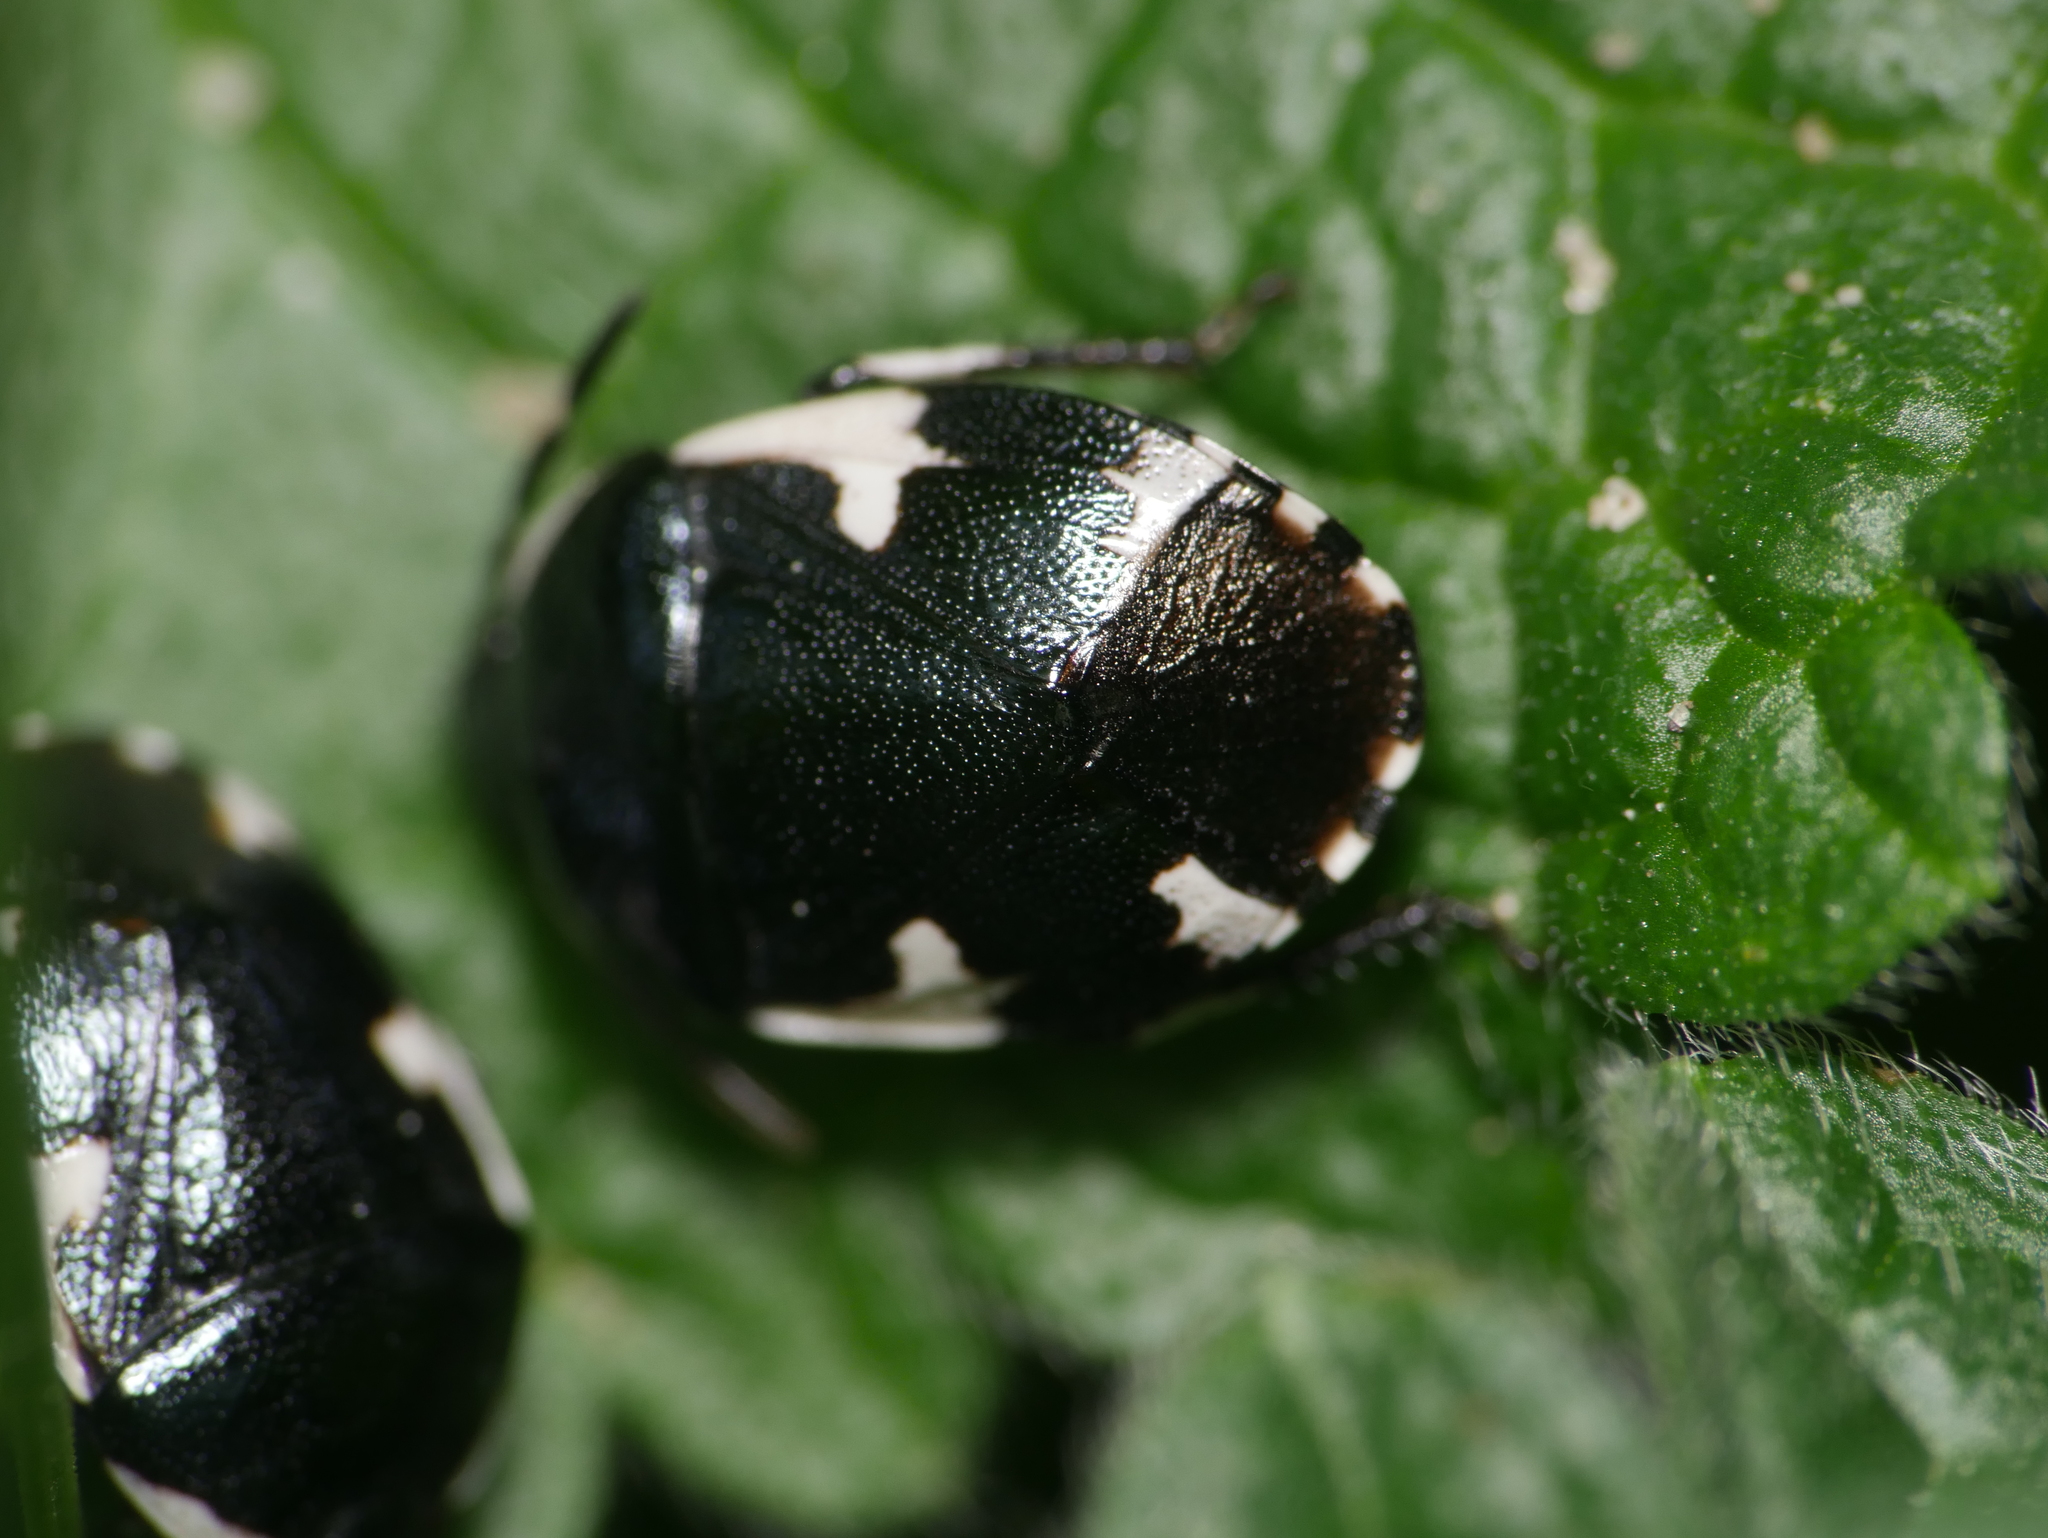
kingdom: Animalia
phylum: Arthropoda
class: Insecta
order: Hemiptera
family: Cydnidae
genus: Tritomegas
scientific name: Tritomegas sexmaculatus
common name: Rambur's pied shieldbug
